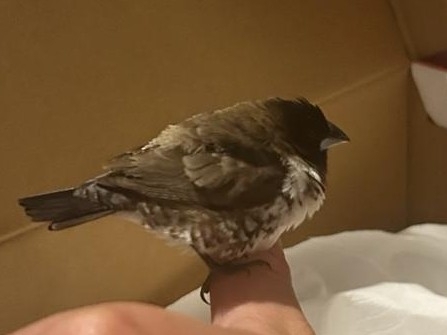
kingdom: Animalia
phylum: Chordata
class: Aves
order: Passeriformes
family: Estrildidae
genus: Lonchura
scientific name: Lonchura cucullata
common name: Bronze mannikin
